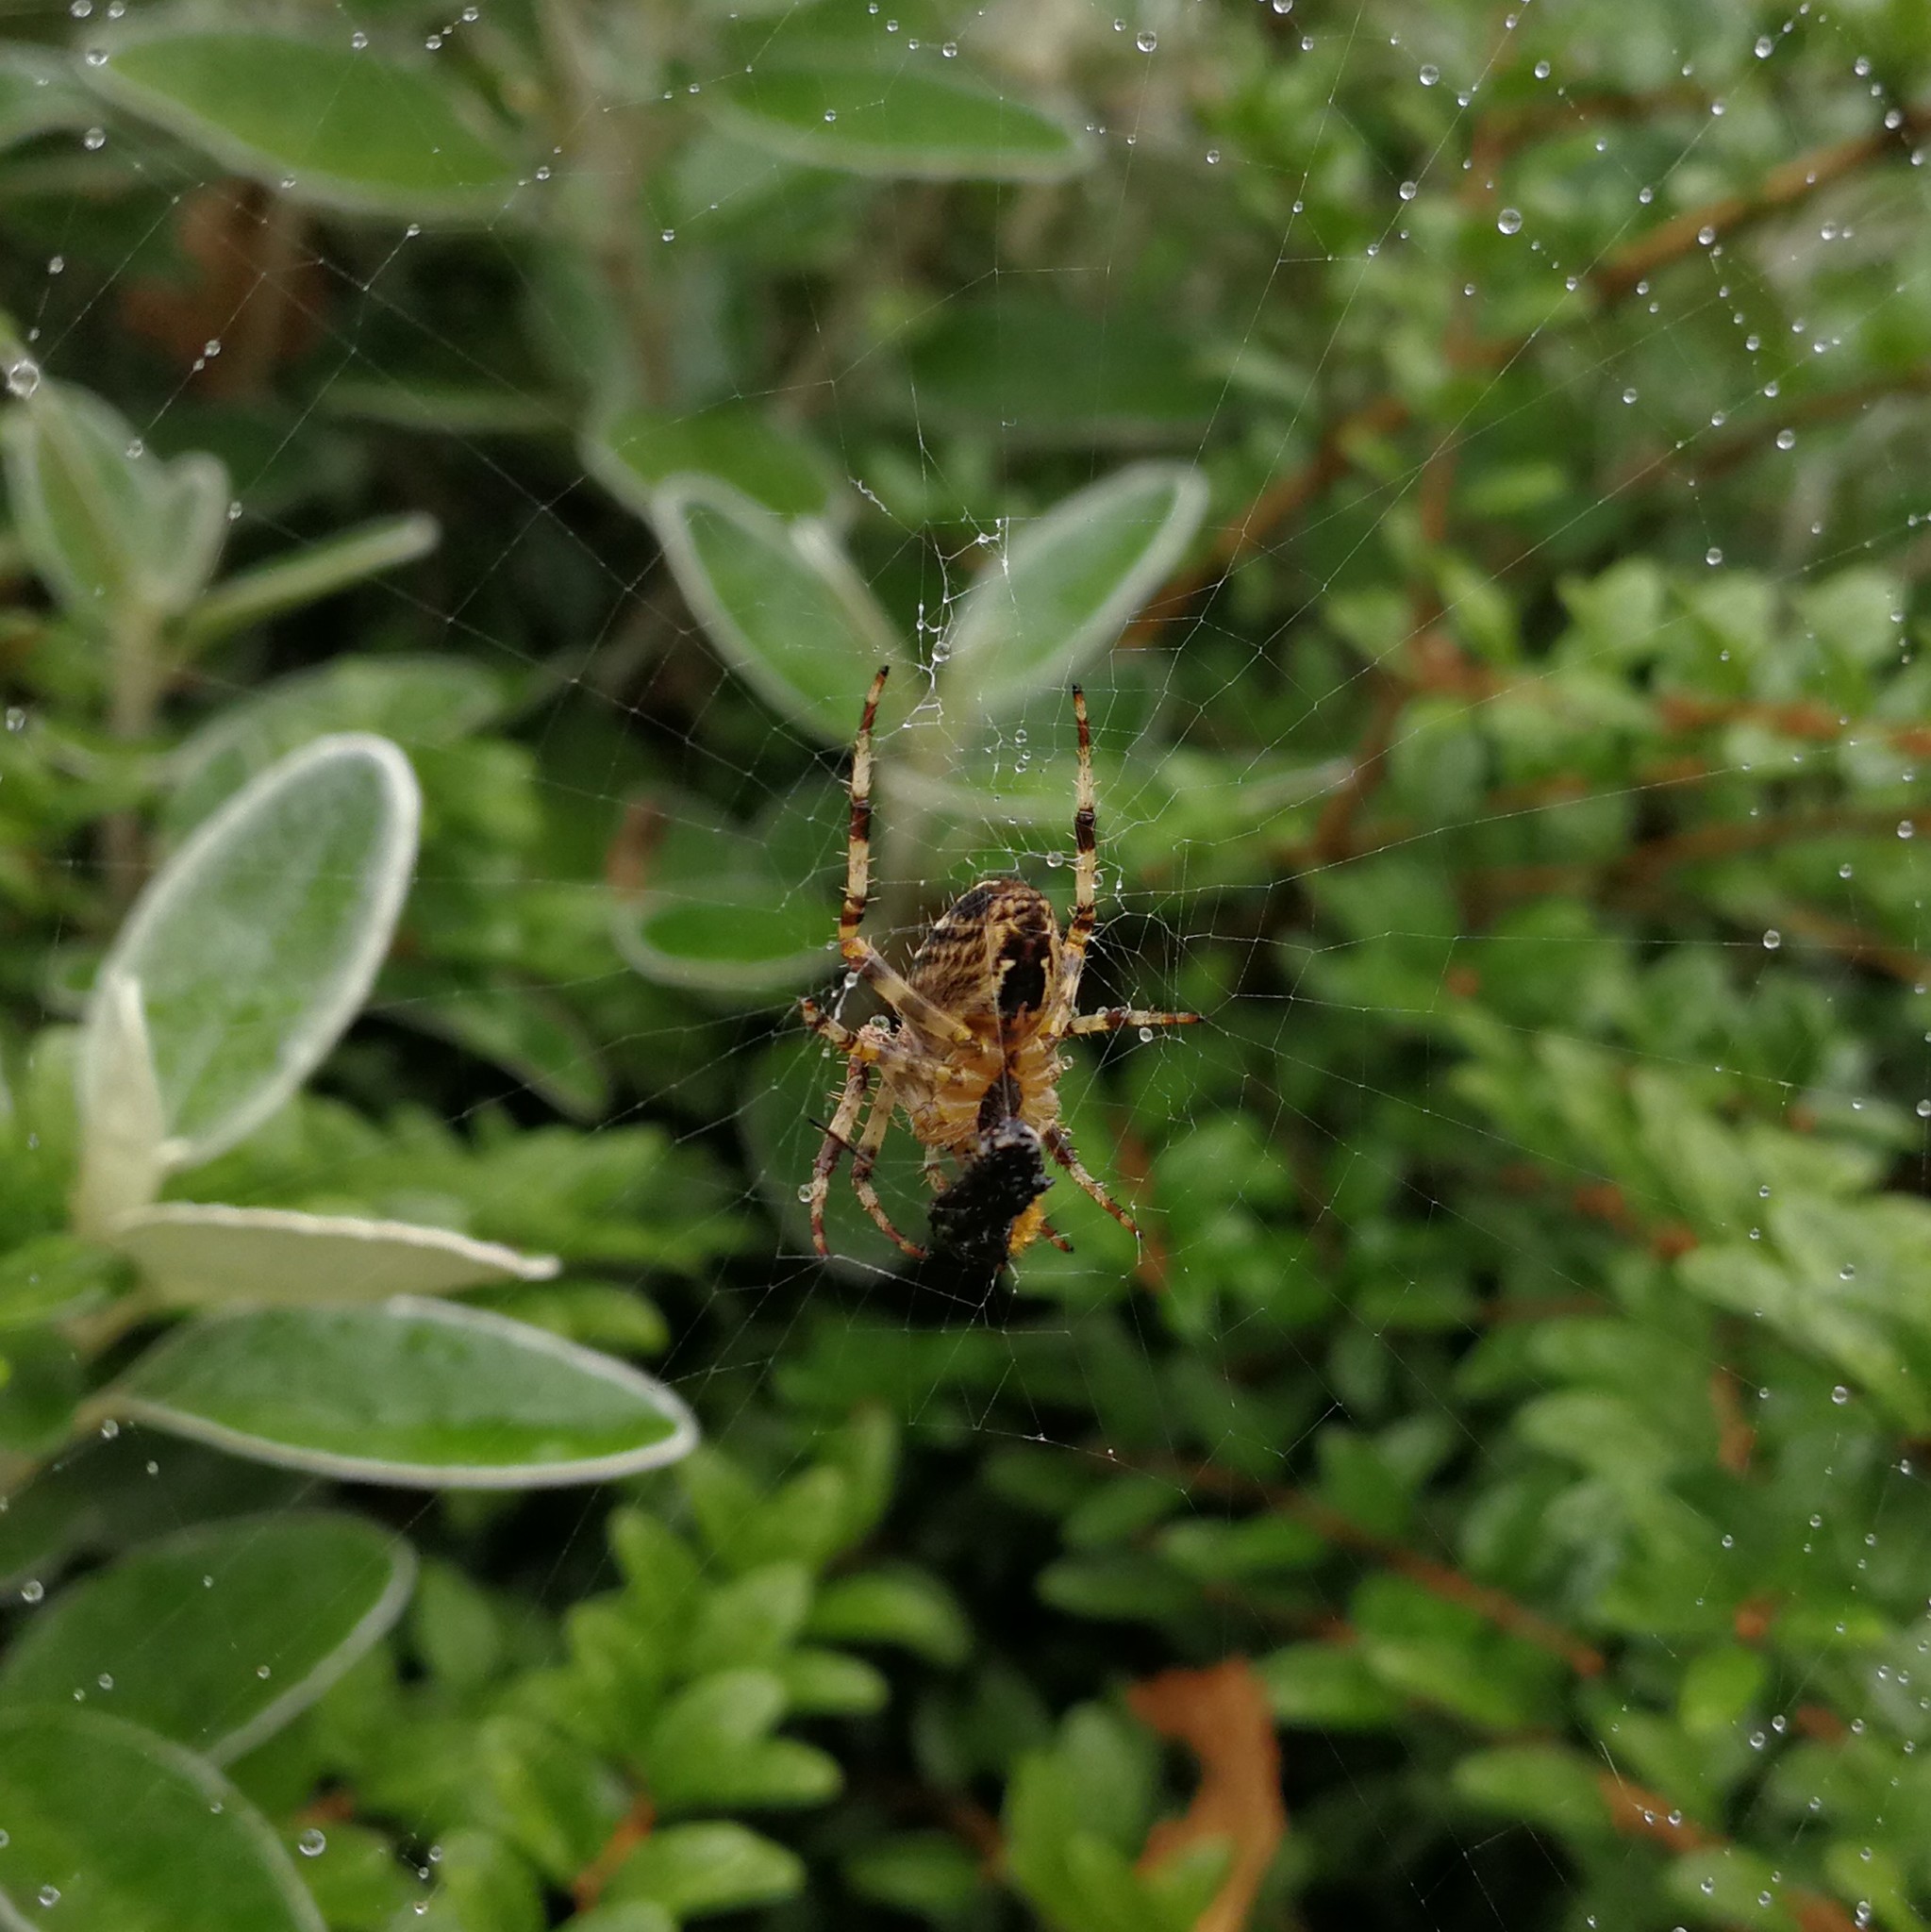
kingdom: Animalia
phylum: Arthropoda
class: Arachnida
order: Araneae
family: Araneidae
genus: Araneus
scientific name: Araneus diadematus
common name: Cross orbweaver
